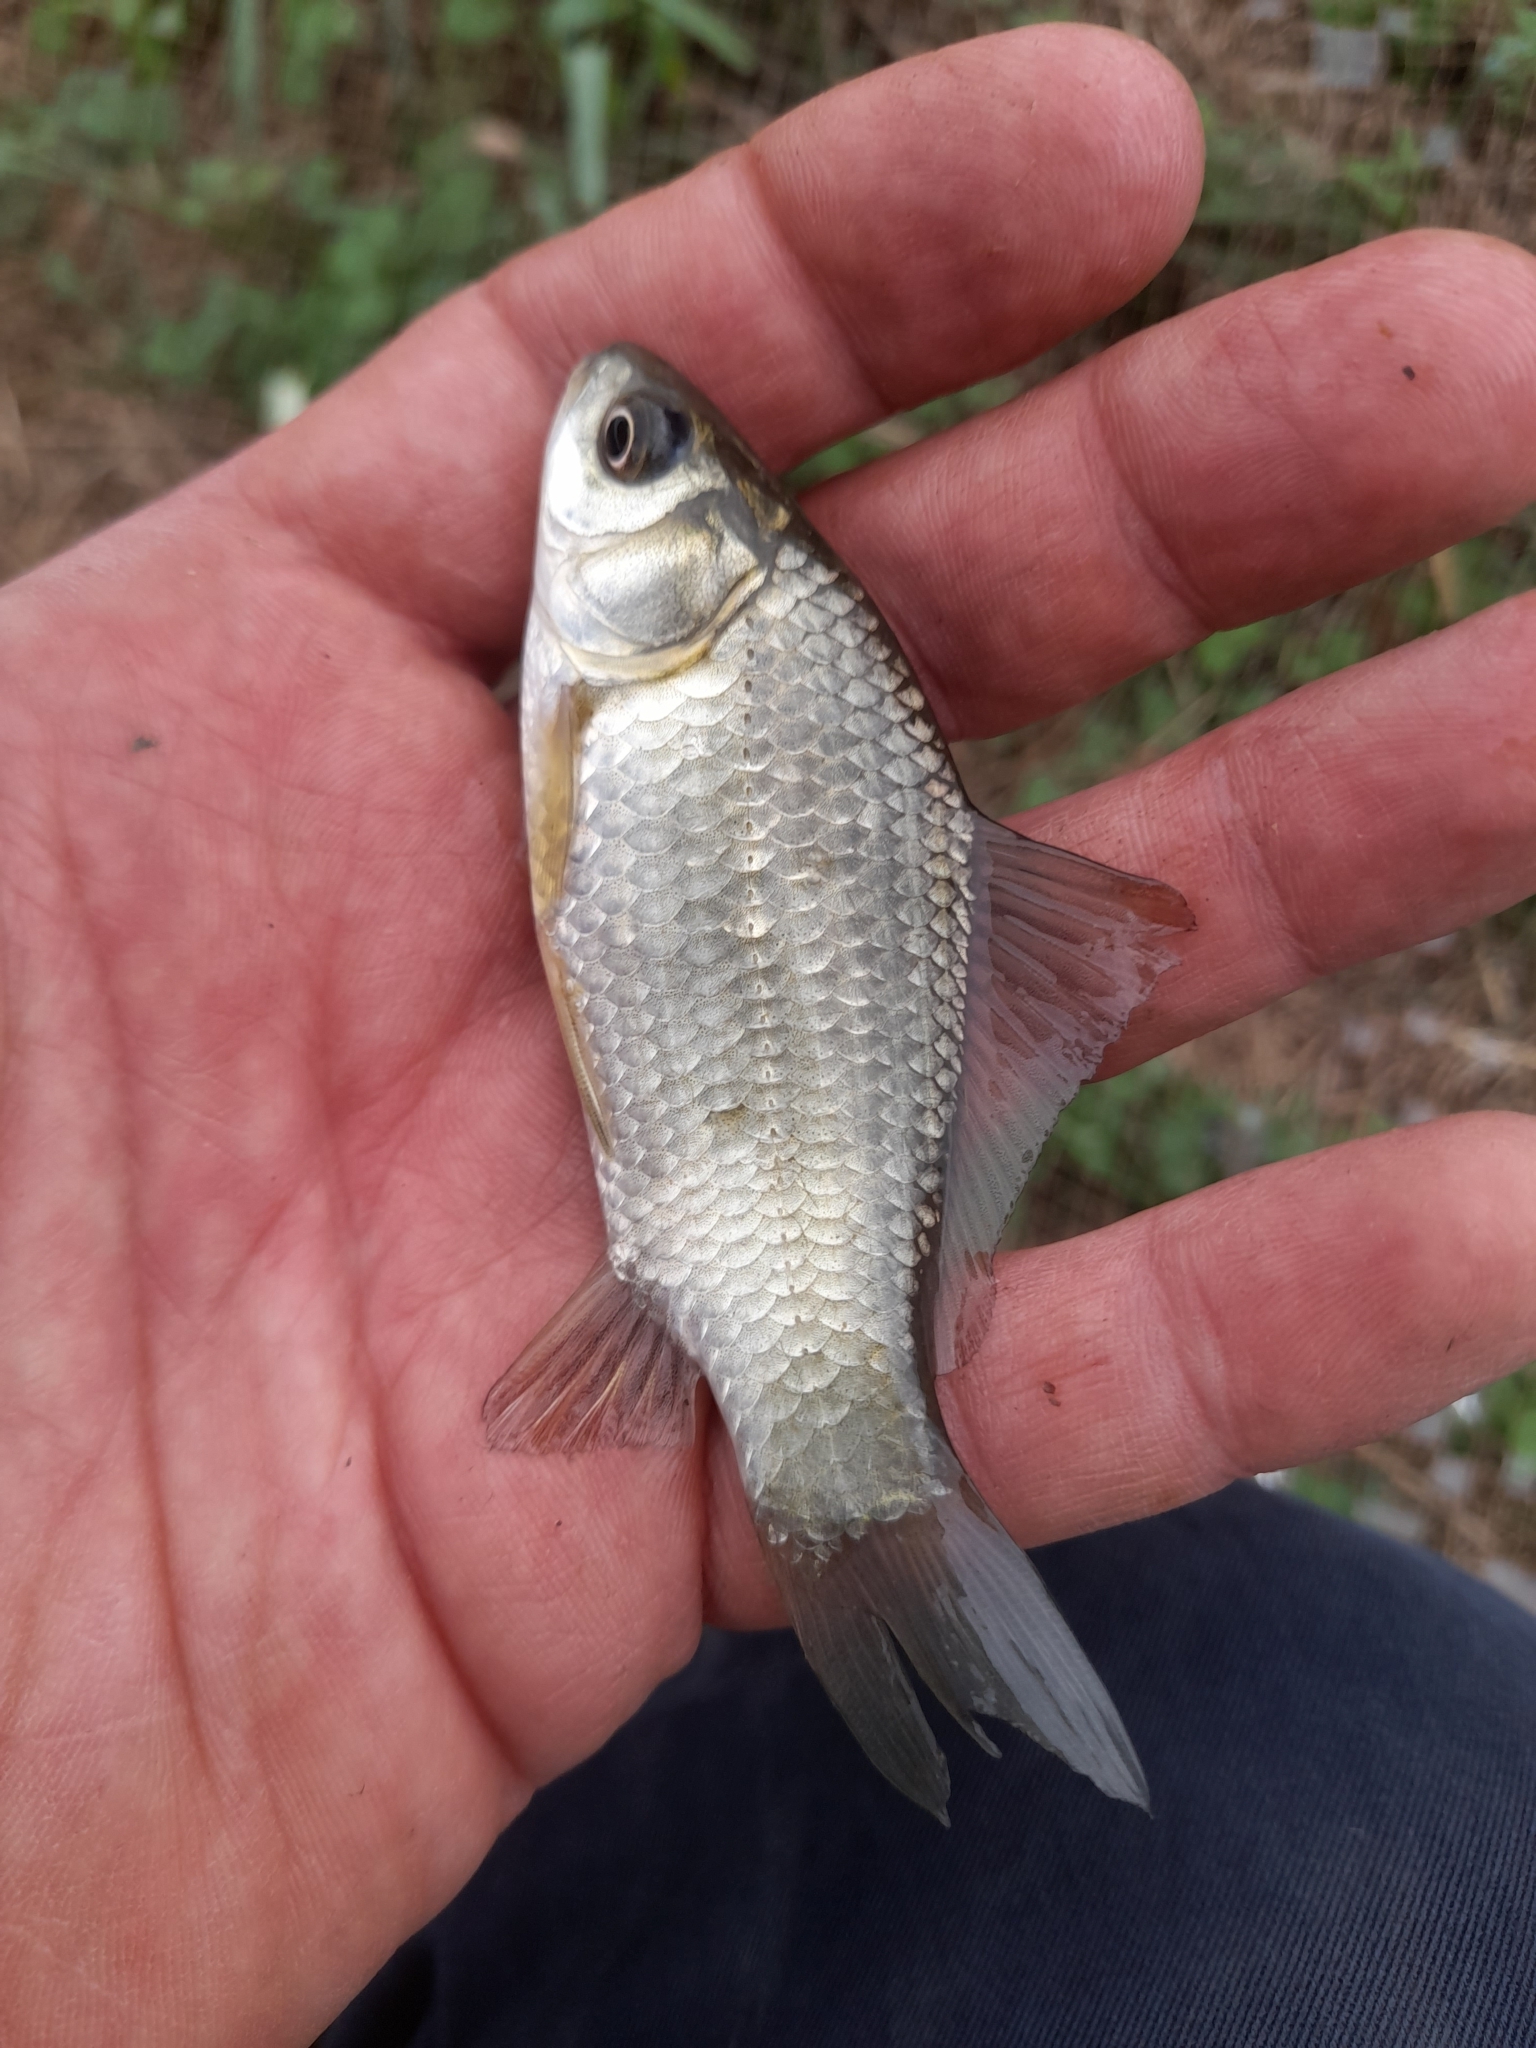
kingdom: Animalia
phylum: Chordata
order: Cypriniformes
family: Cyprinidae
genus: Carassius
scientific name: Carassius gibelio
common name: Prussian carp
